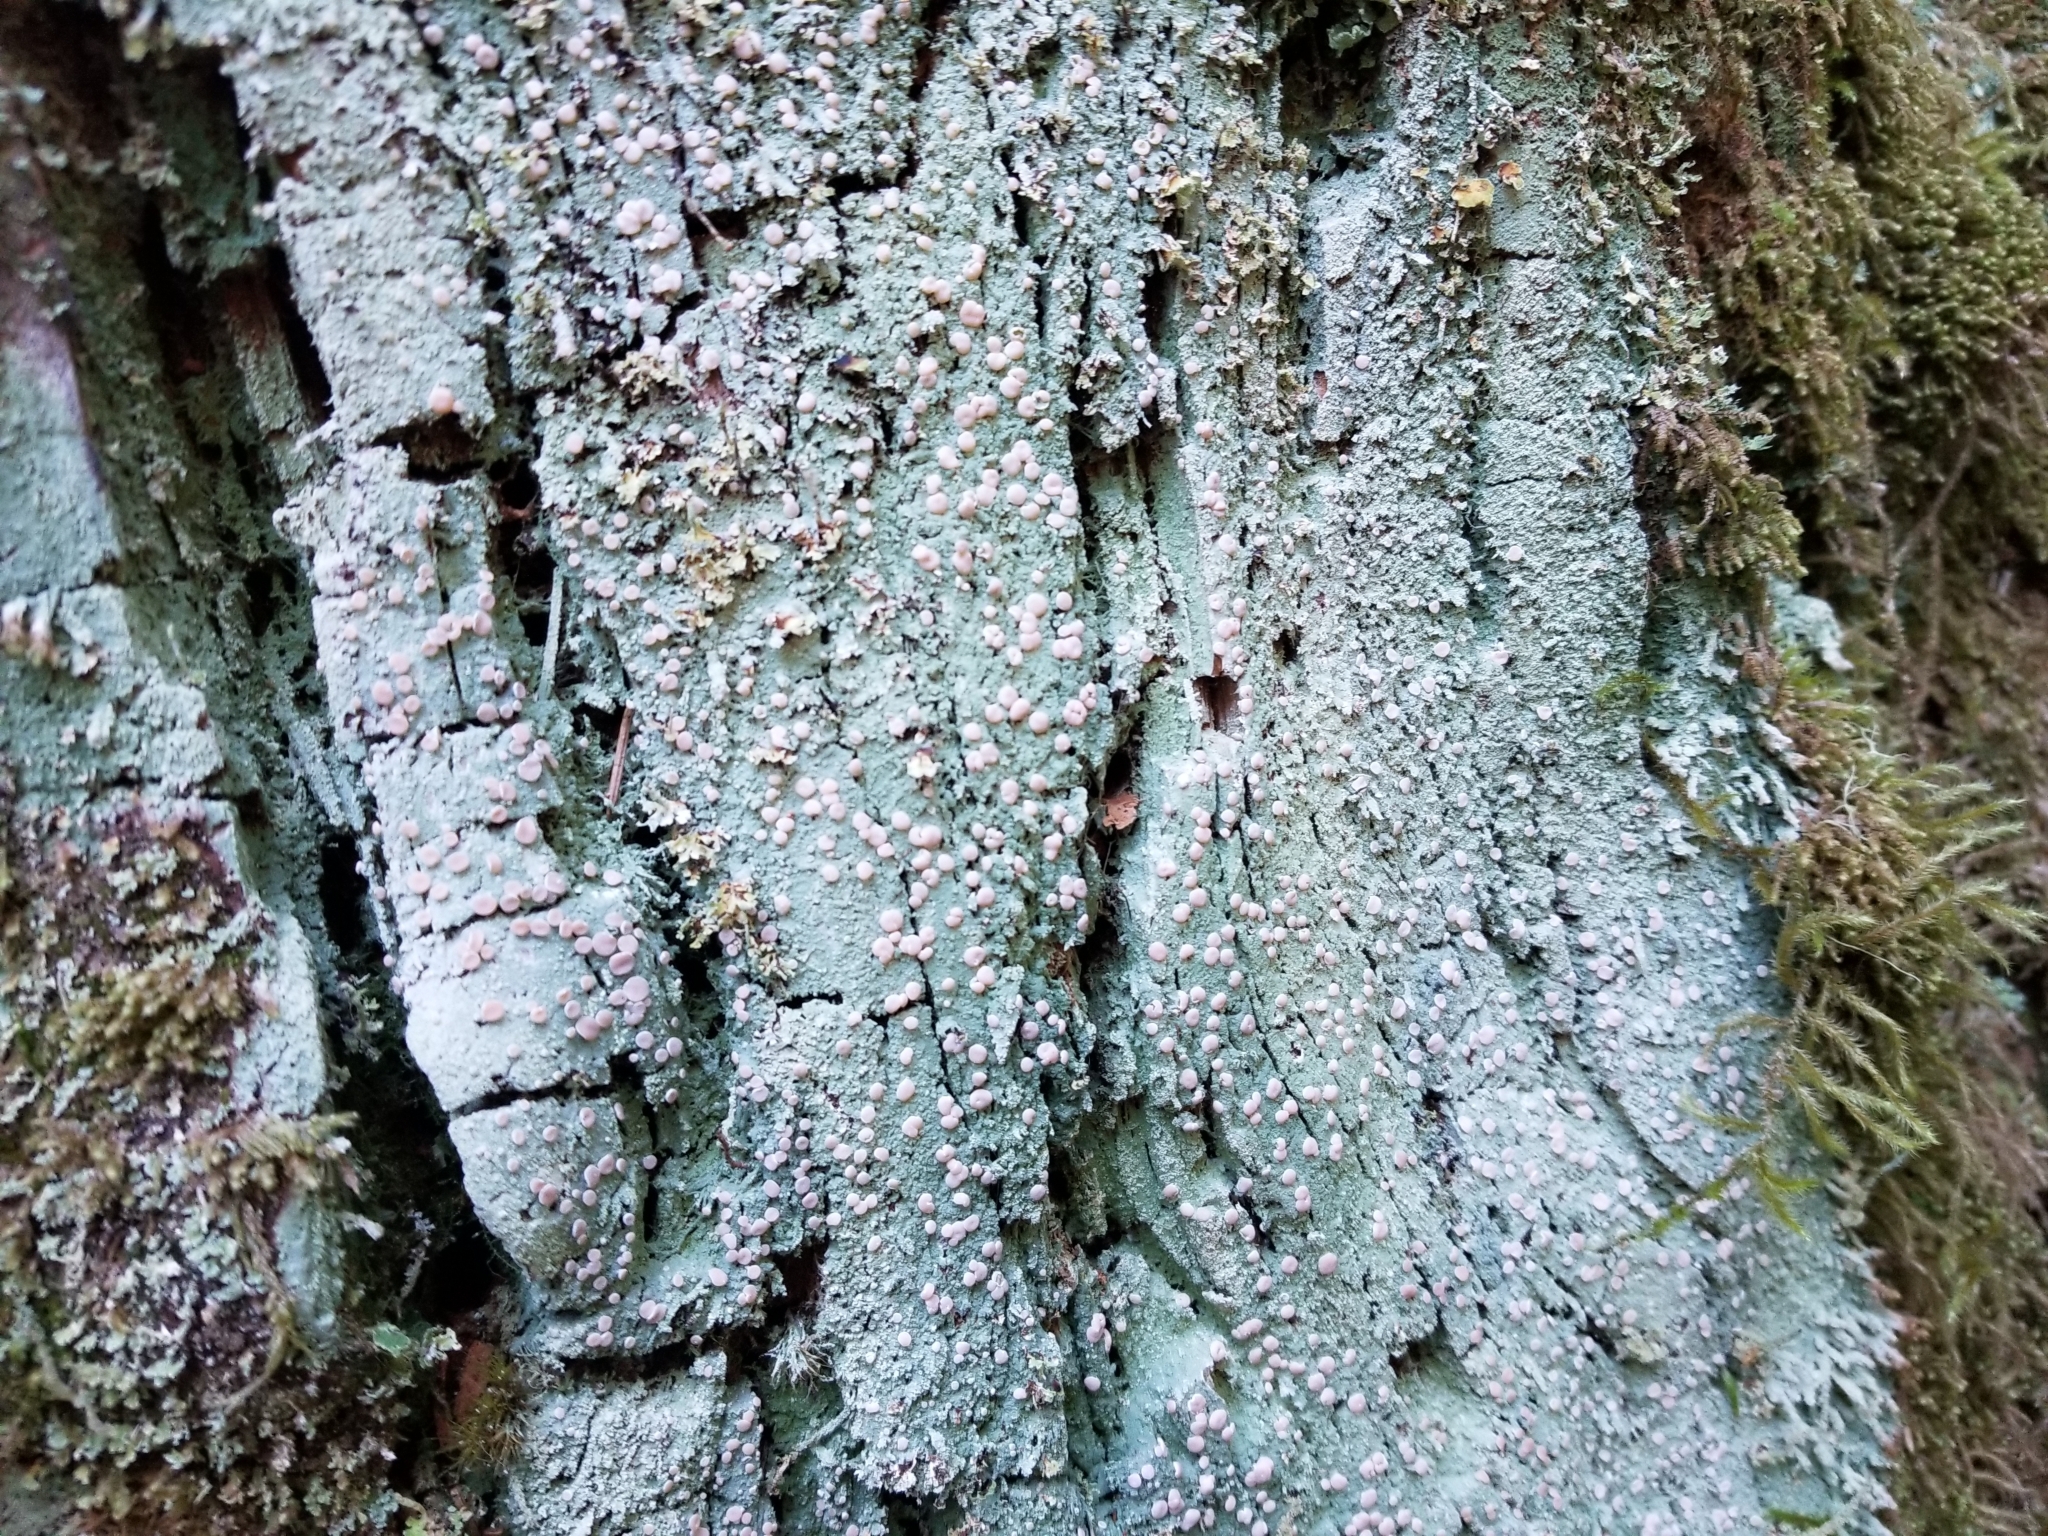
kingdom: Fungi
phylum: Ascomycota
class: Lecanoromycetes
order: Pertusariales
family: Icmadophilaceae
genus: Icmadophila
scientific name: Icmadophila ericetorum
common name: Candy lichen
